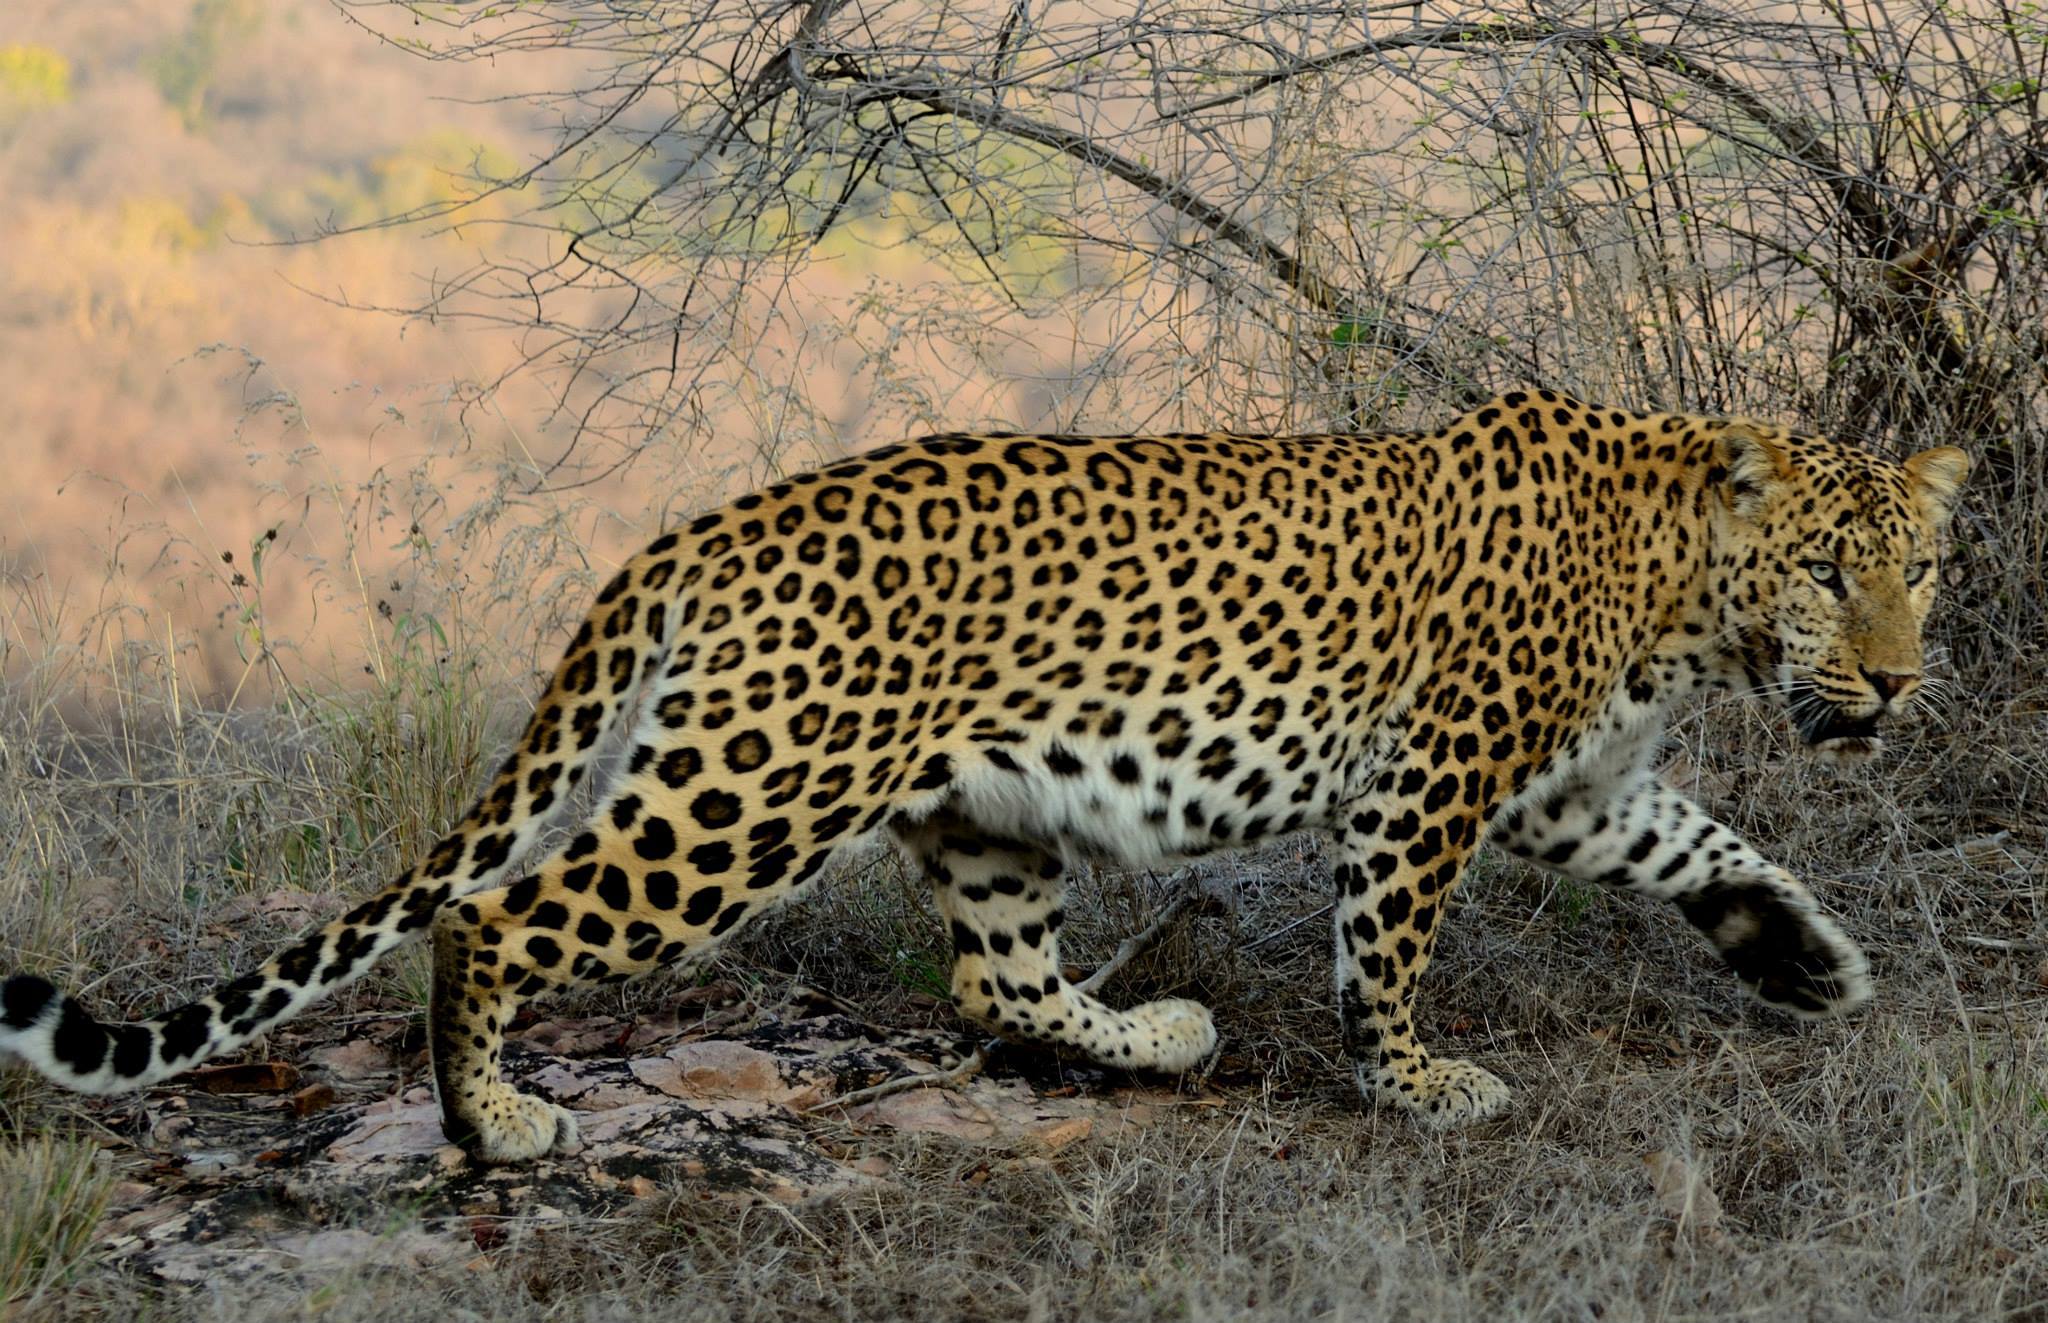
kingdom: Animalia
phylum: Chordata
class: Mammalia
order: Carnivora
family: Felidae
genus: Panthera
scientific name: Panthera pardus
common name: Leopard
